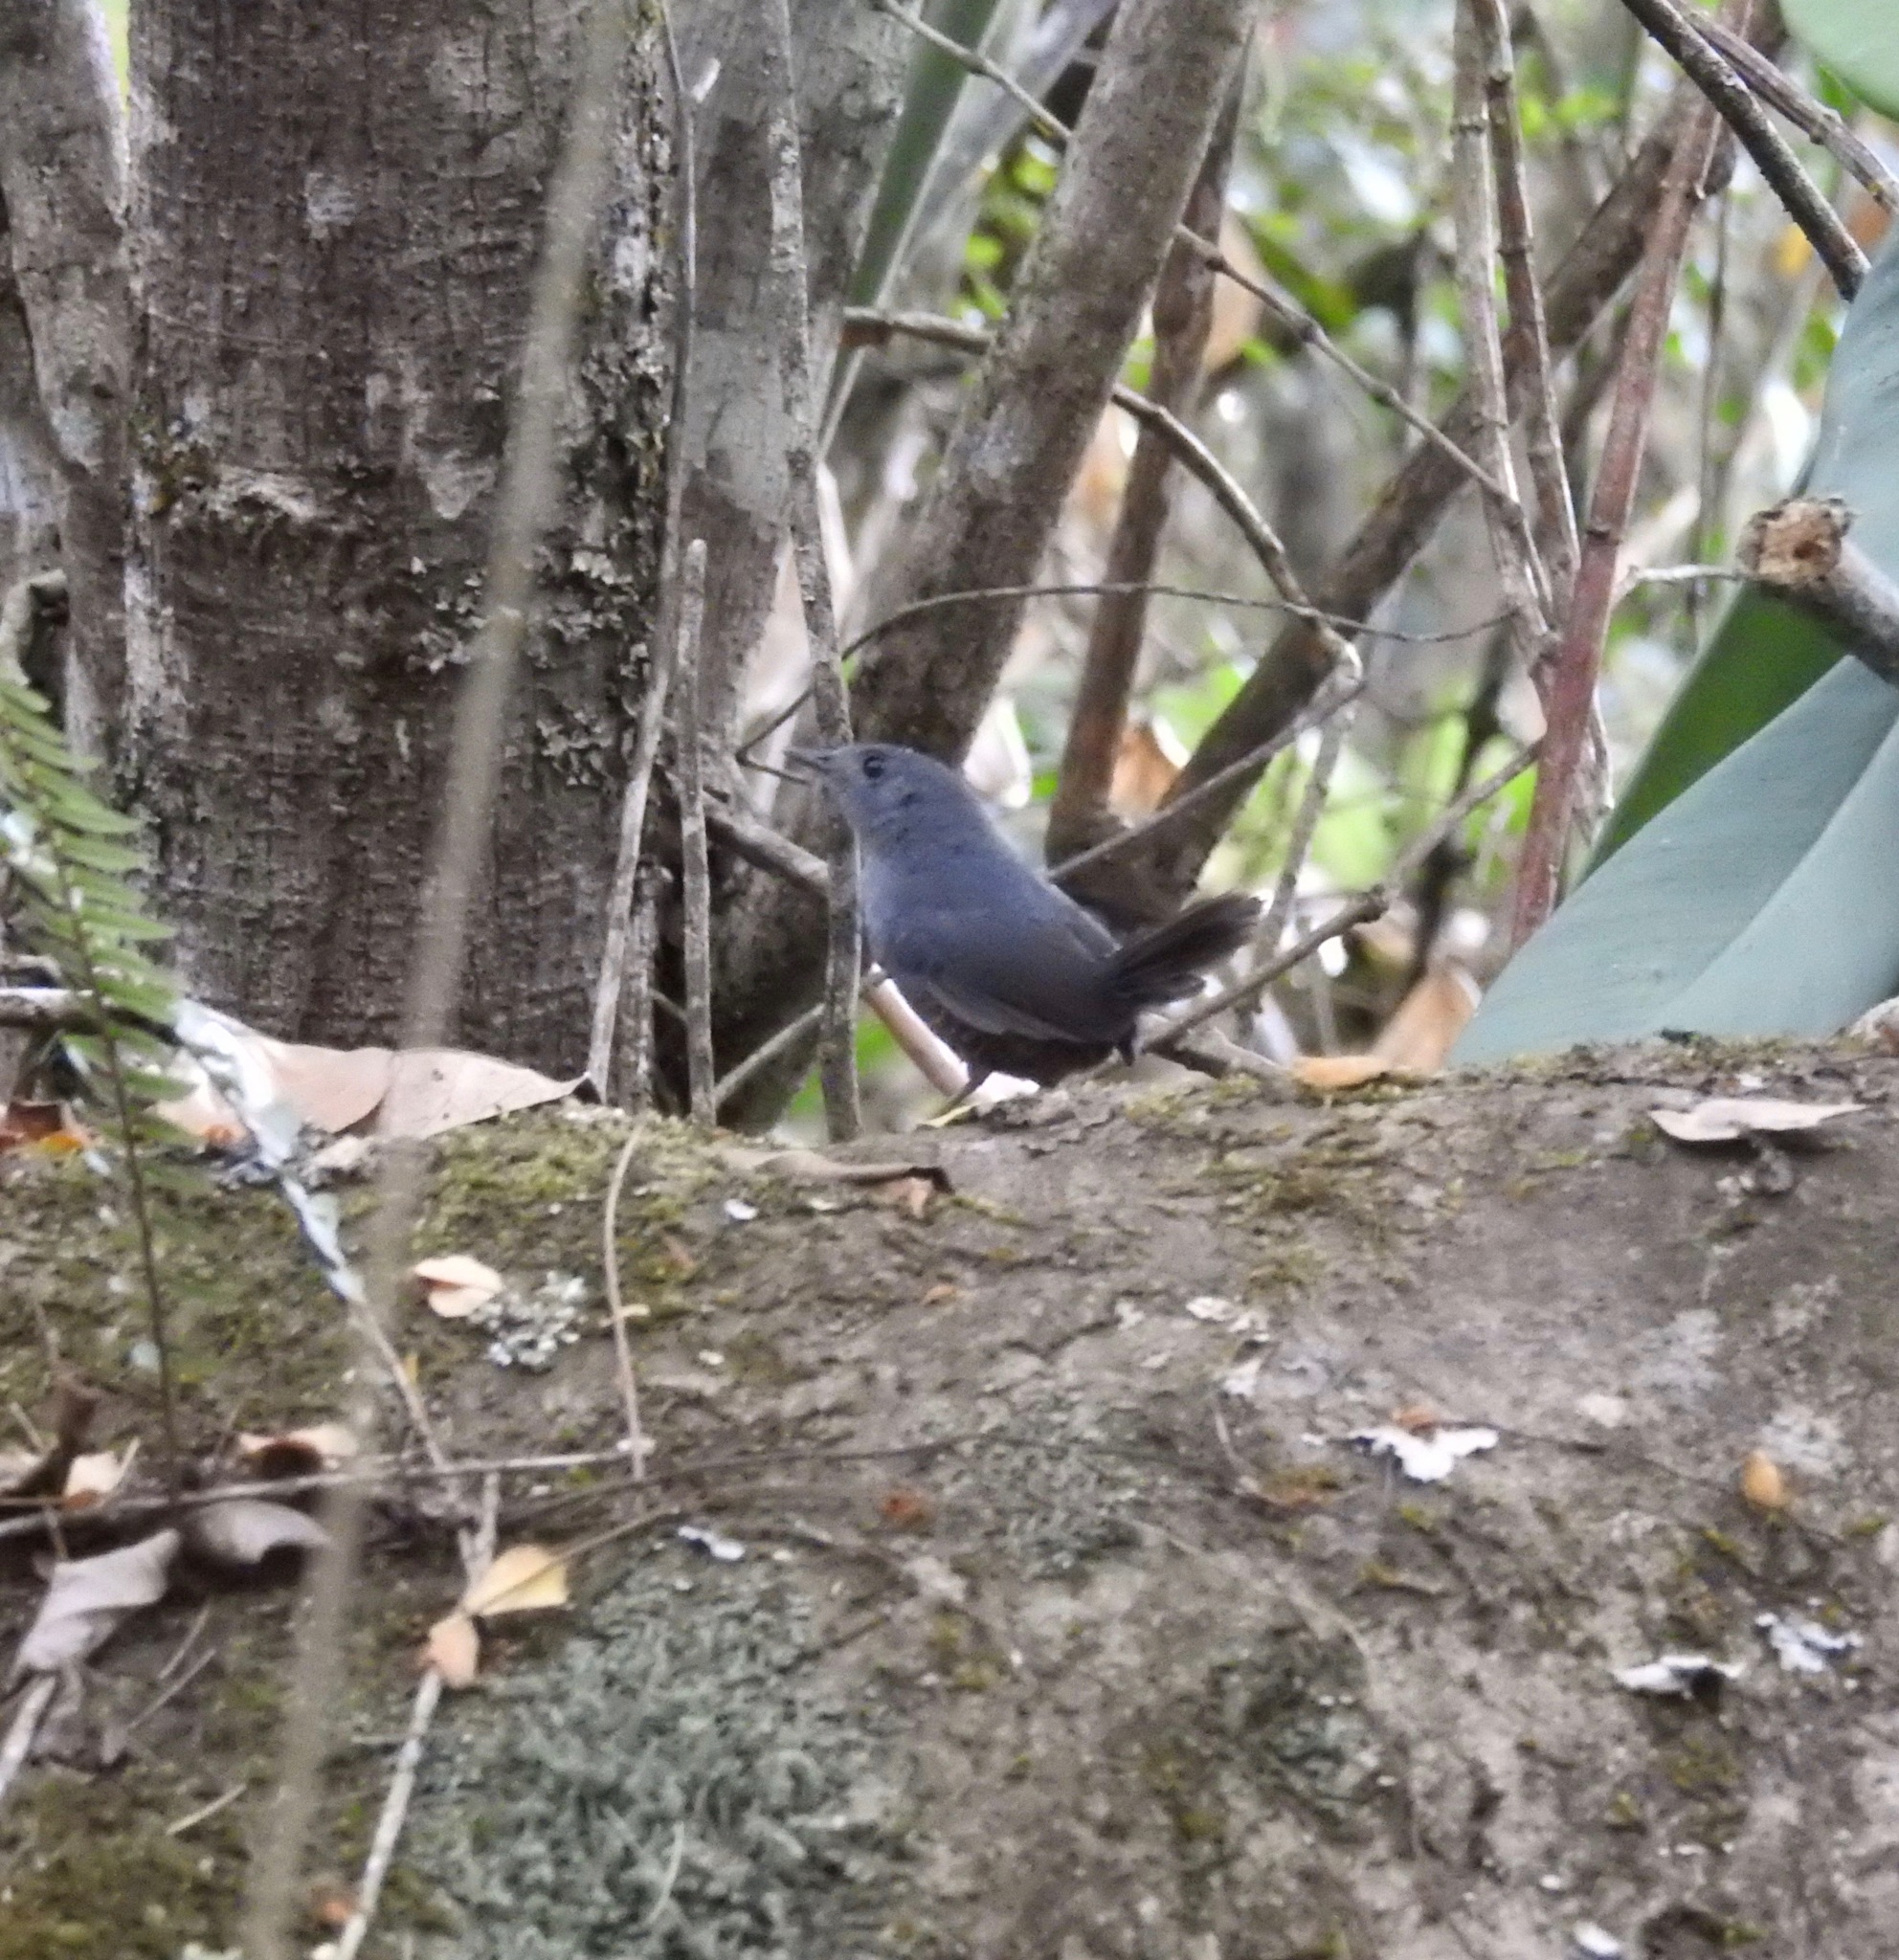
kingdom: Animalia
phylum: Chordata
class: Aves
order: Passeriformes
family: Rhinocryptidae
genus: Scytalopus
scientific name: Scytalopus diamantinensis
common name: Diamantina tapaculo
